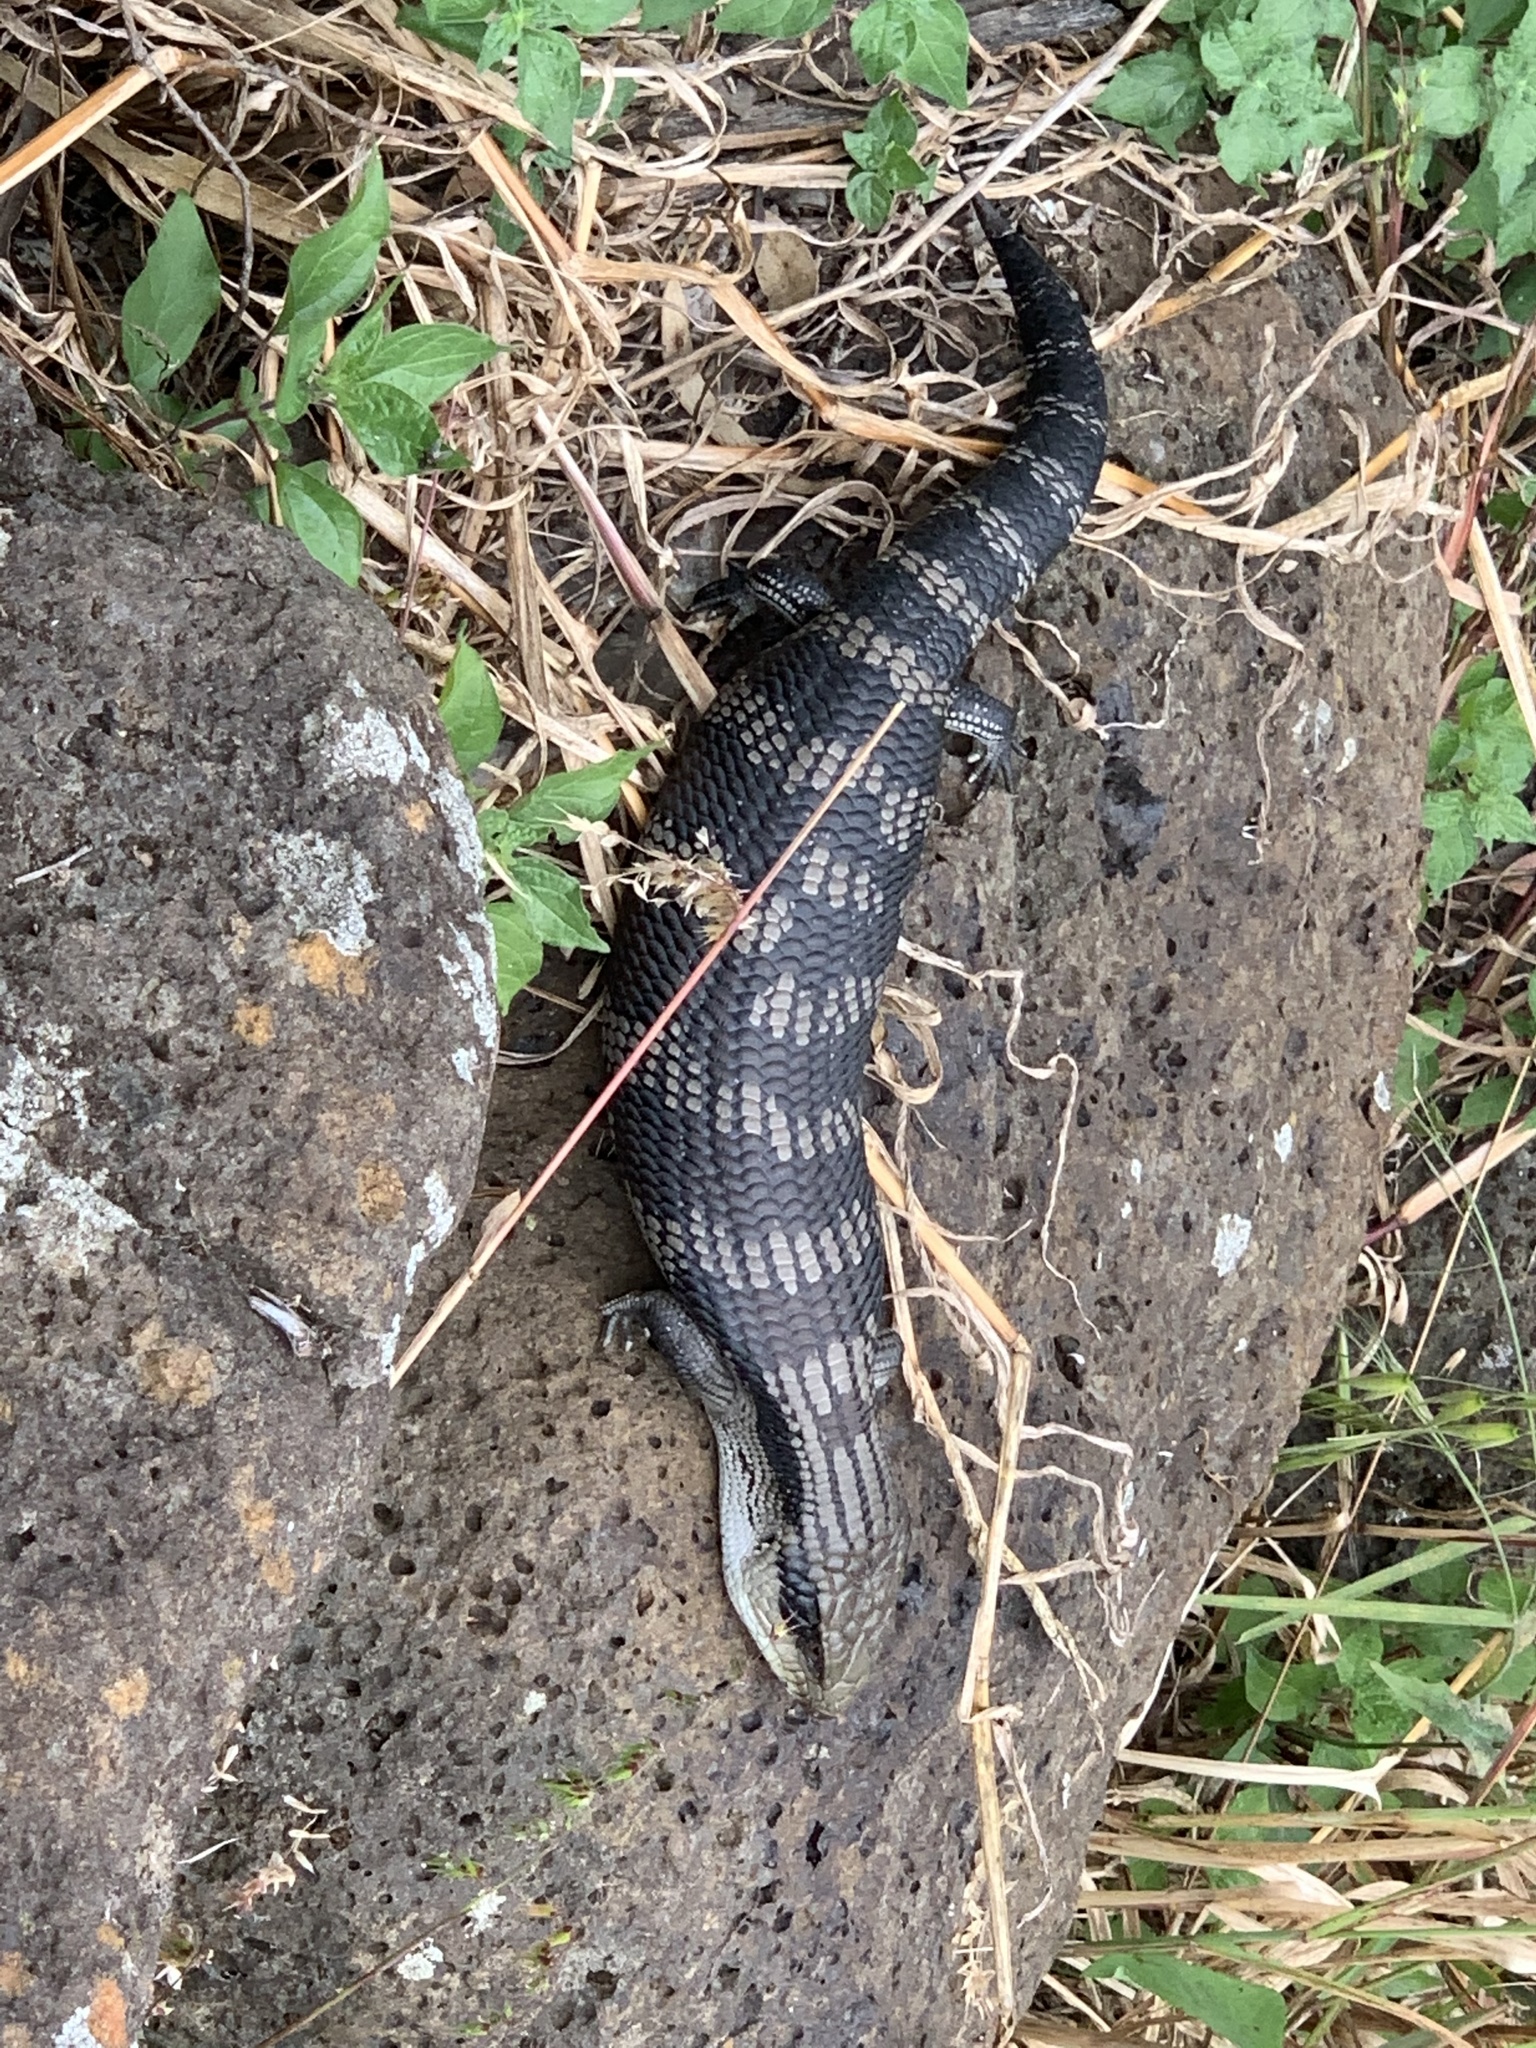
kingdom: Animalia
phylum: Chordata
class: Squamata
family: Scincidae
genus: Tiliqua
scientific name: Tiliqua scincoides
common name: Common bluetongue
